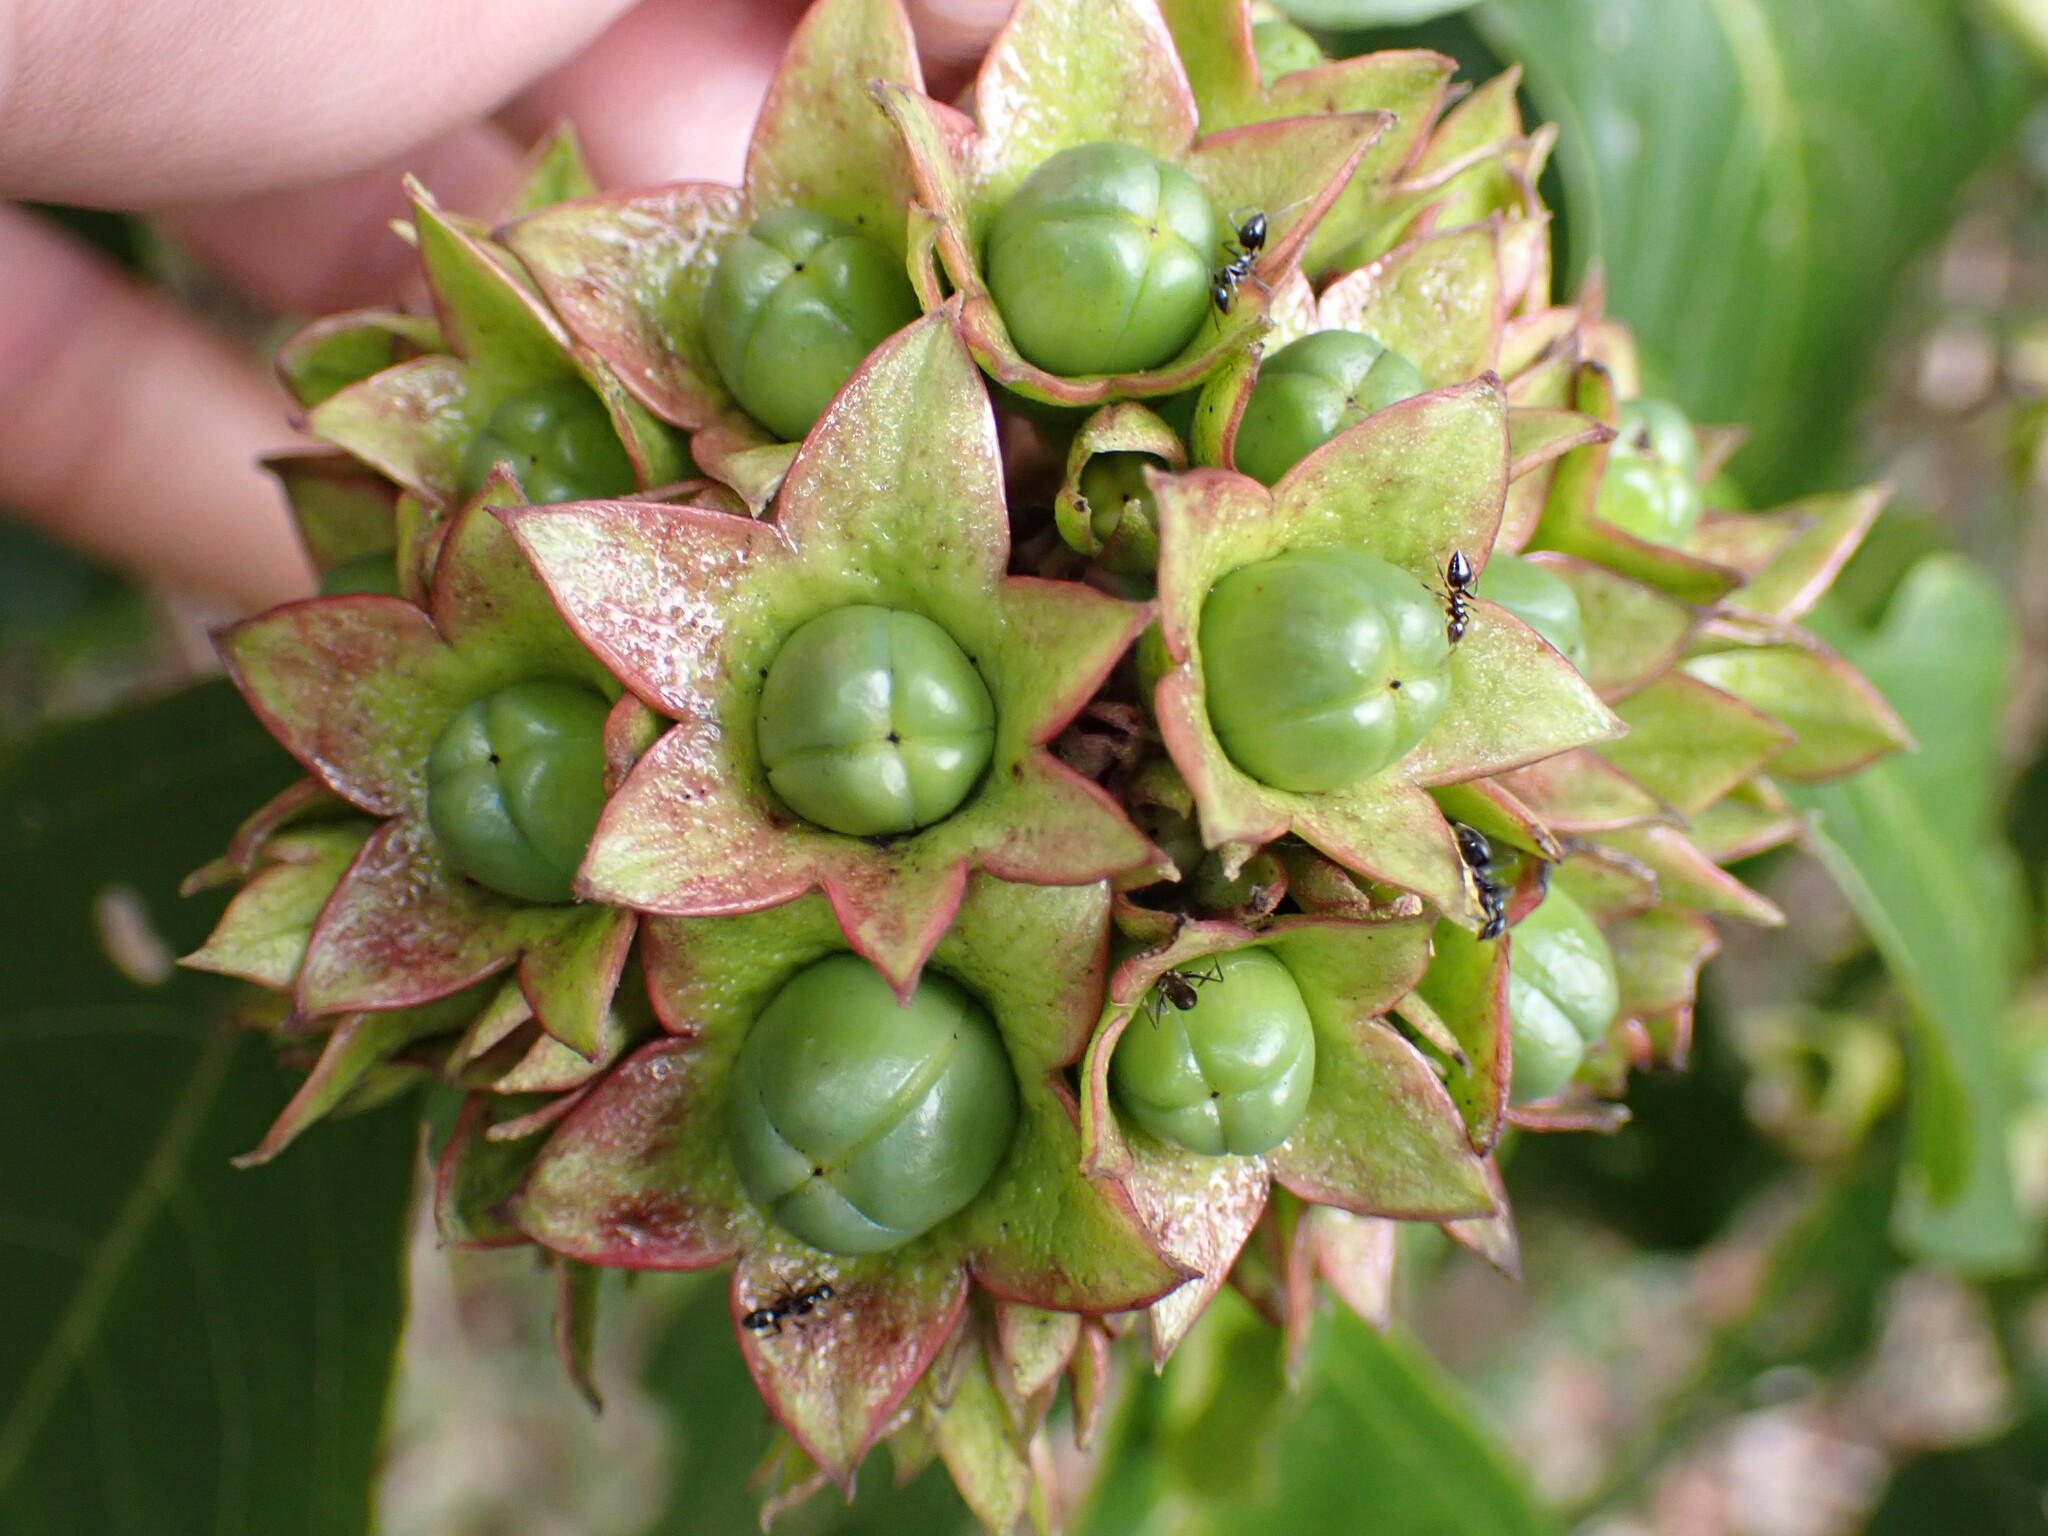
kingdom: Plantae
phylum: Tracheophyta
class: Magnoliopsida
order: Lamiales
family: Lamiaceae
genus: Clerodendrum
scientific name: Clerodendrum floribundum
